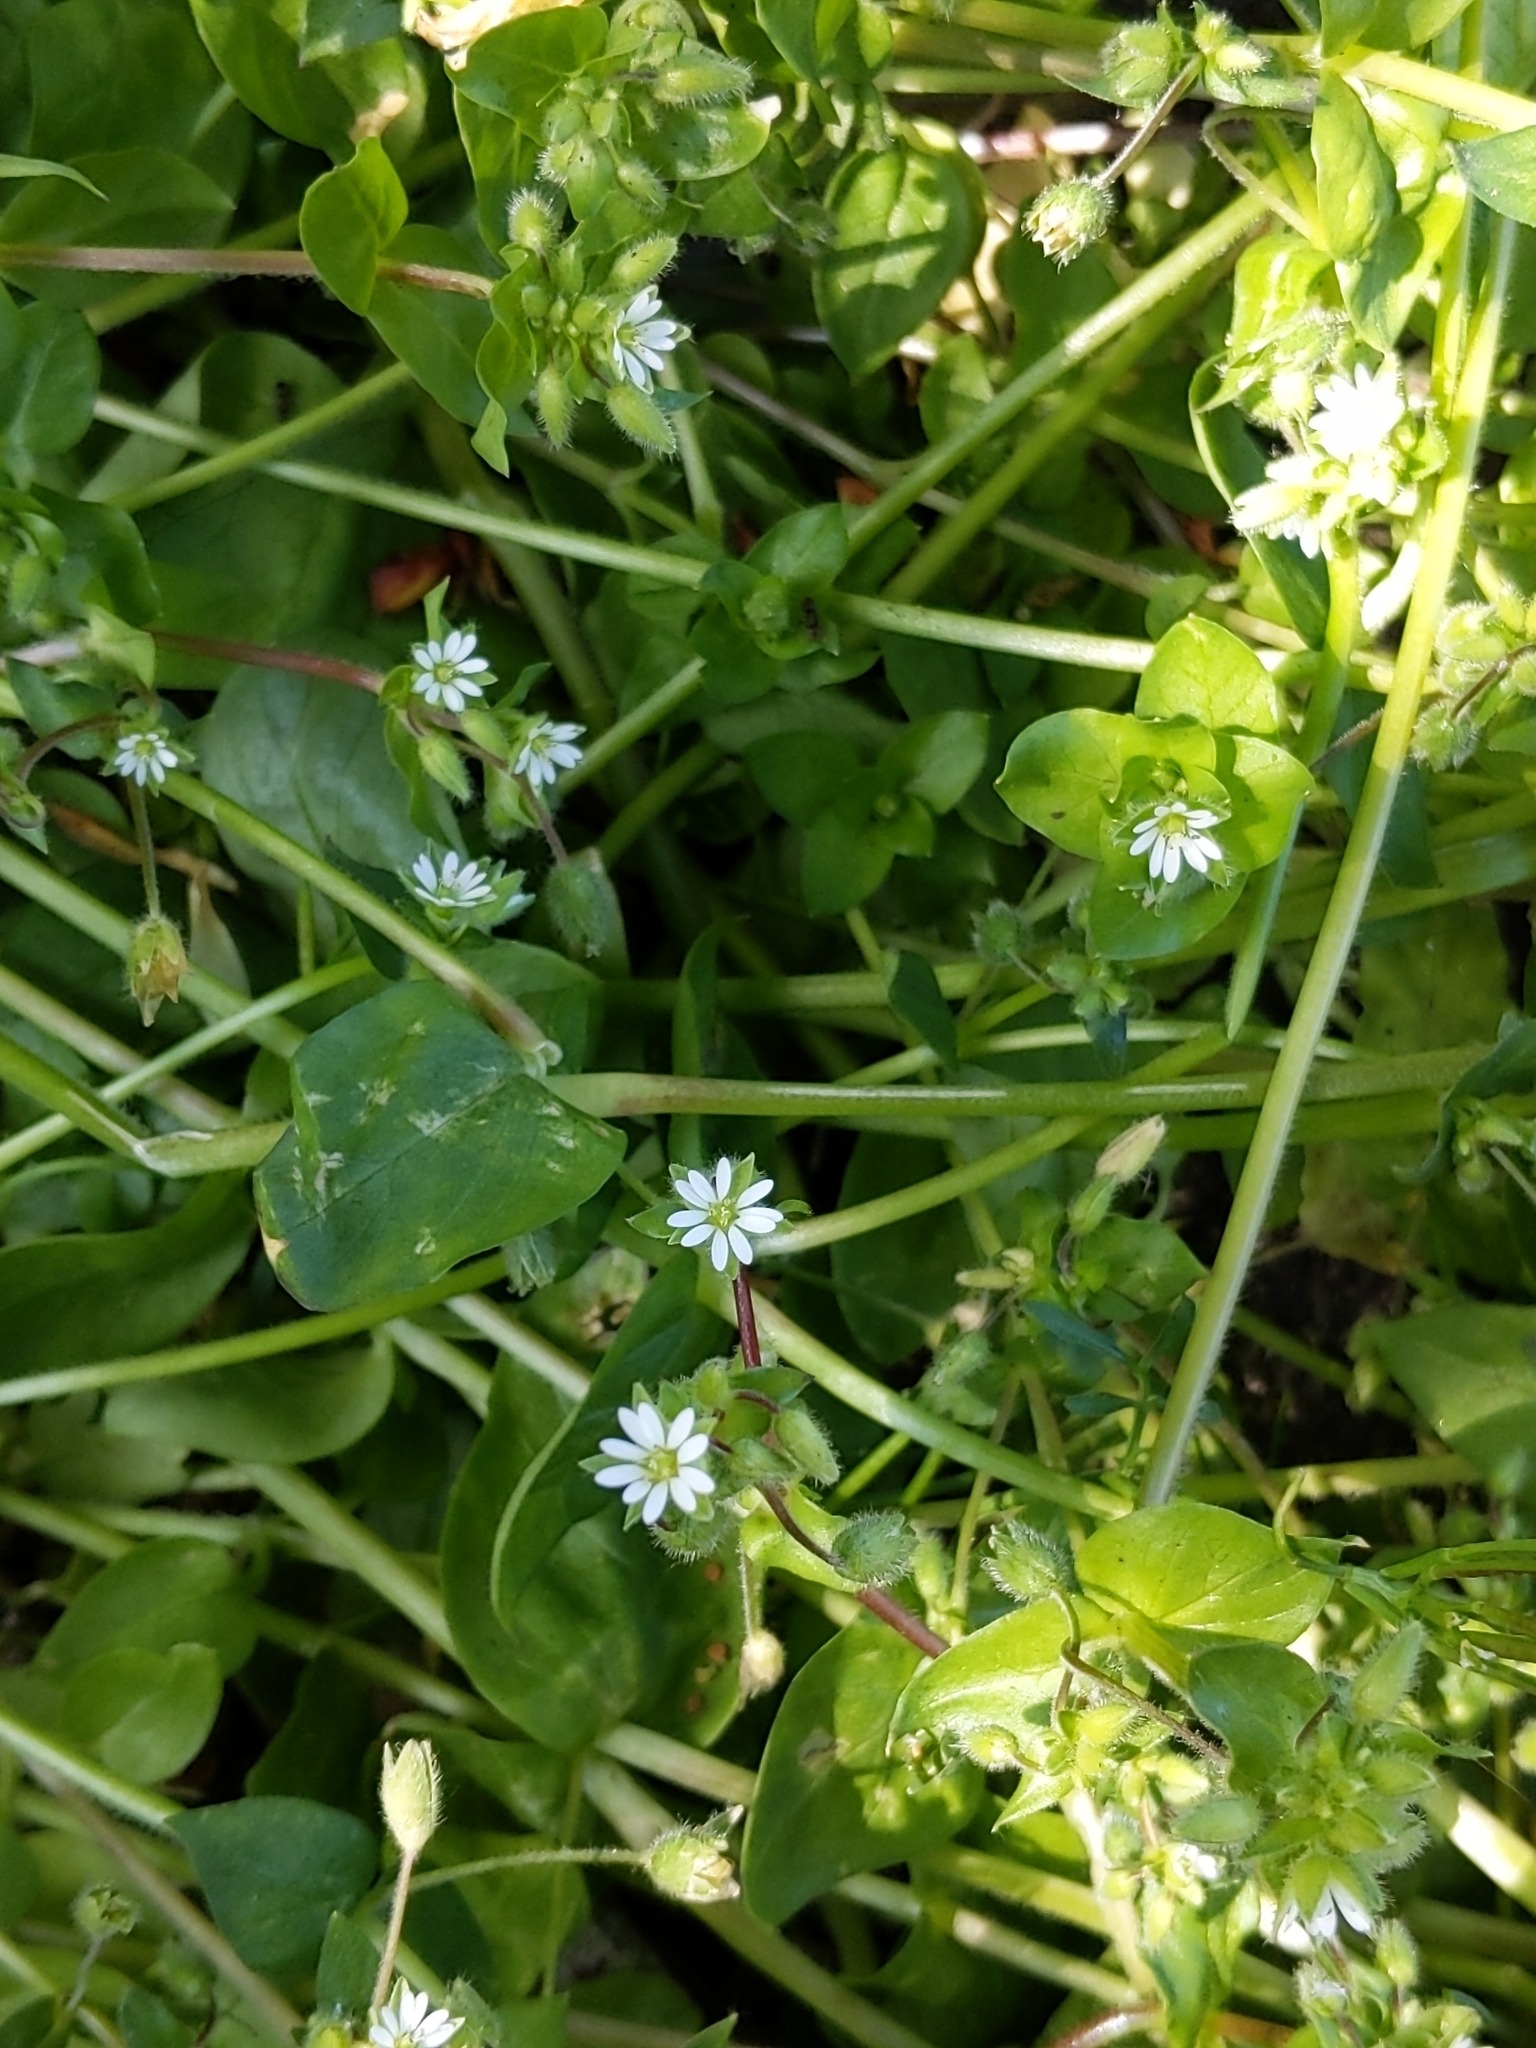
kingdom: Plantae
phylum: Tracheophyta
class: Magnoliopsida
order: Caryophyllales
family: Caryophyllaceae
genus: Stellaria
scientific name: Stellaria media
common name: Common chickweed
